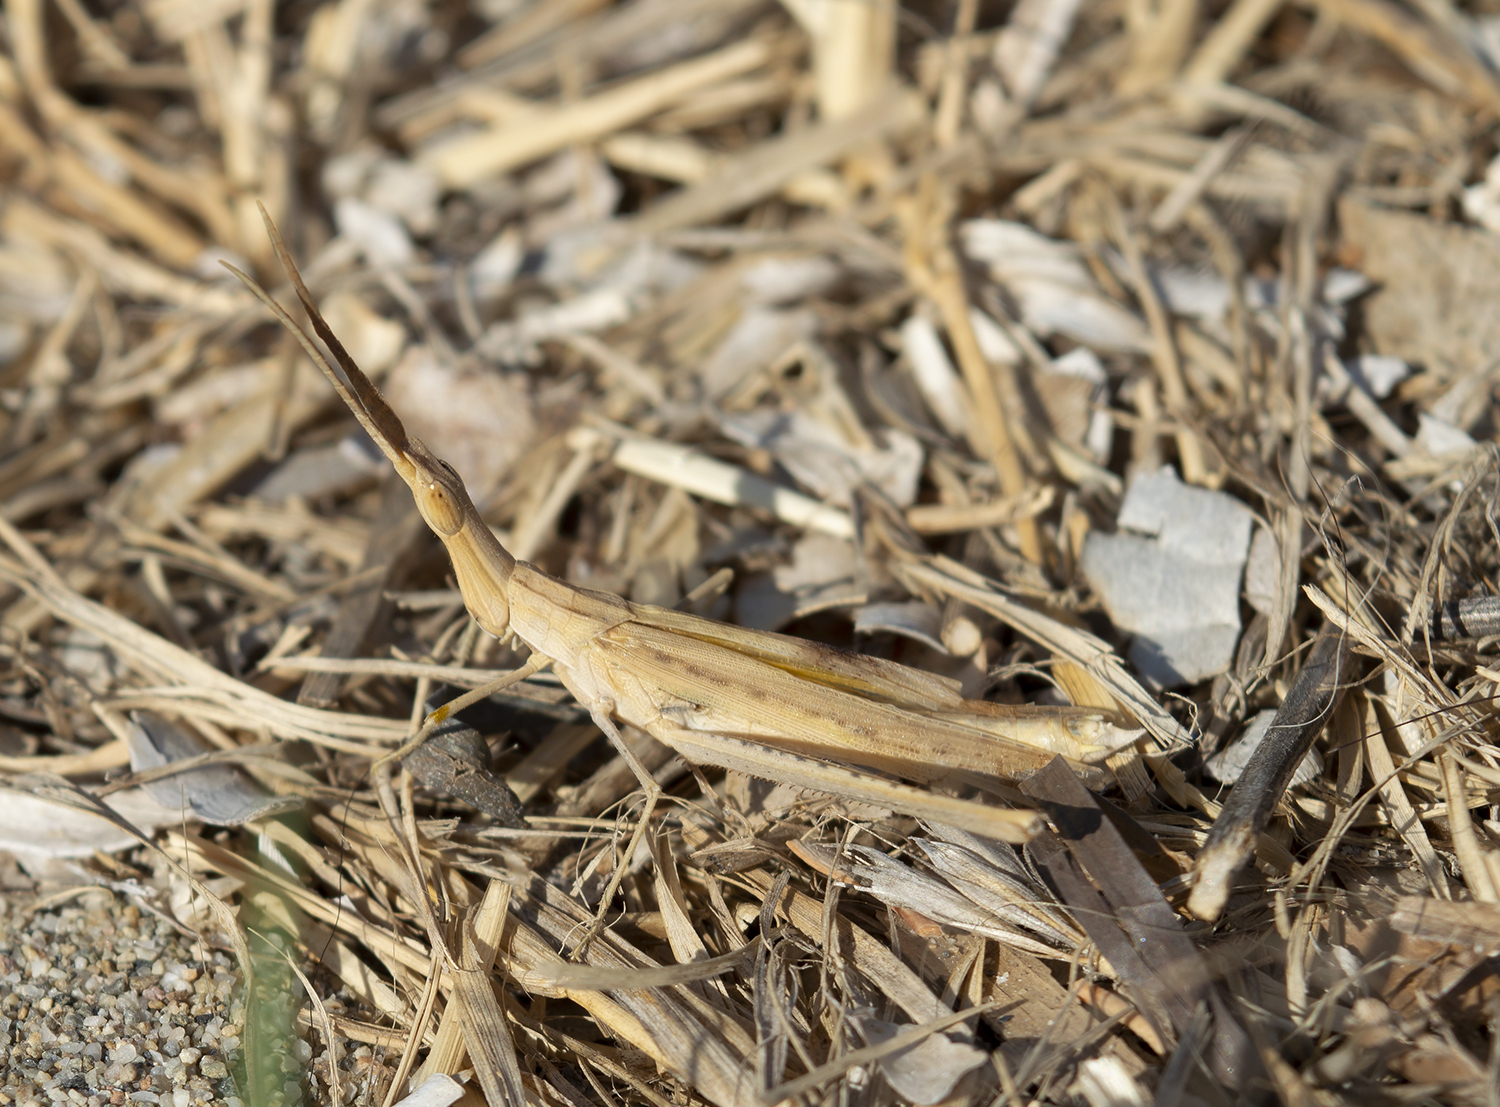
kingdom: Animalia
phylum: Arthropoda
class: Insecta
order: Orthoptera
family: Acrididae
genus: Acrida
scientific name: Acrida ungarica
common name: Common cone-headed grasshopper
